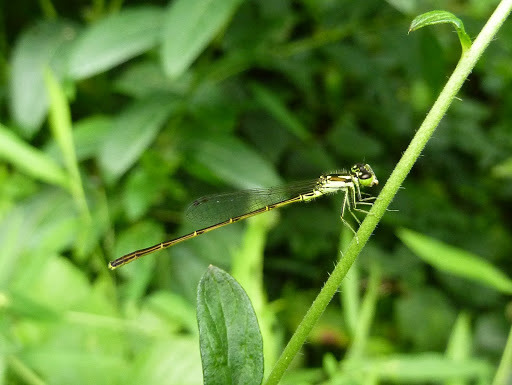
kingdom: Animalia
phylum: Arthropoda
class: Insecta
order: Odonata
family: Coenagrionidae
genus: Ischnura
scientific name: Ischnura posita
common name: Fragile forktail
